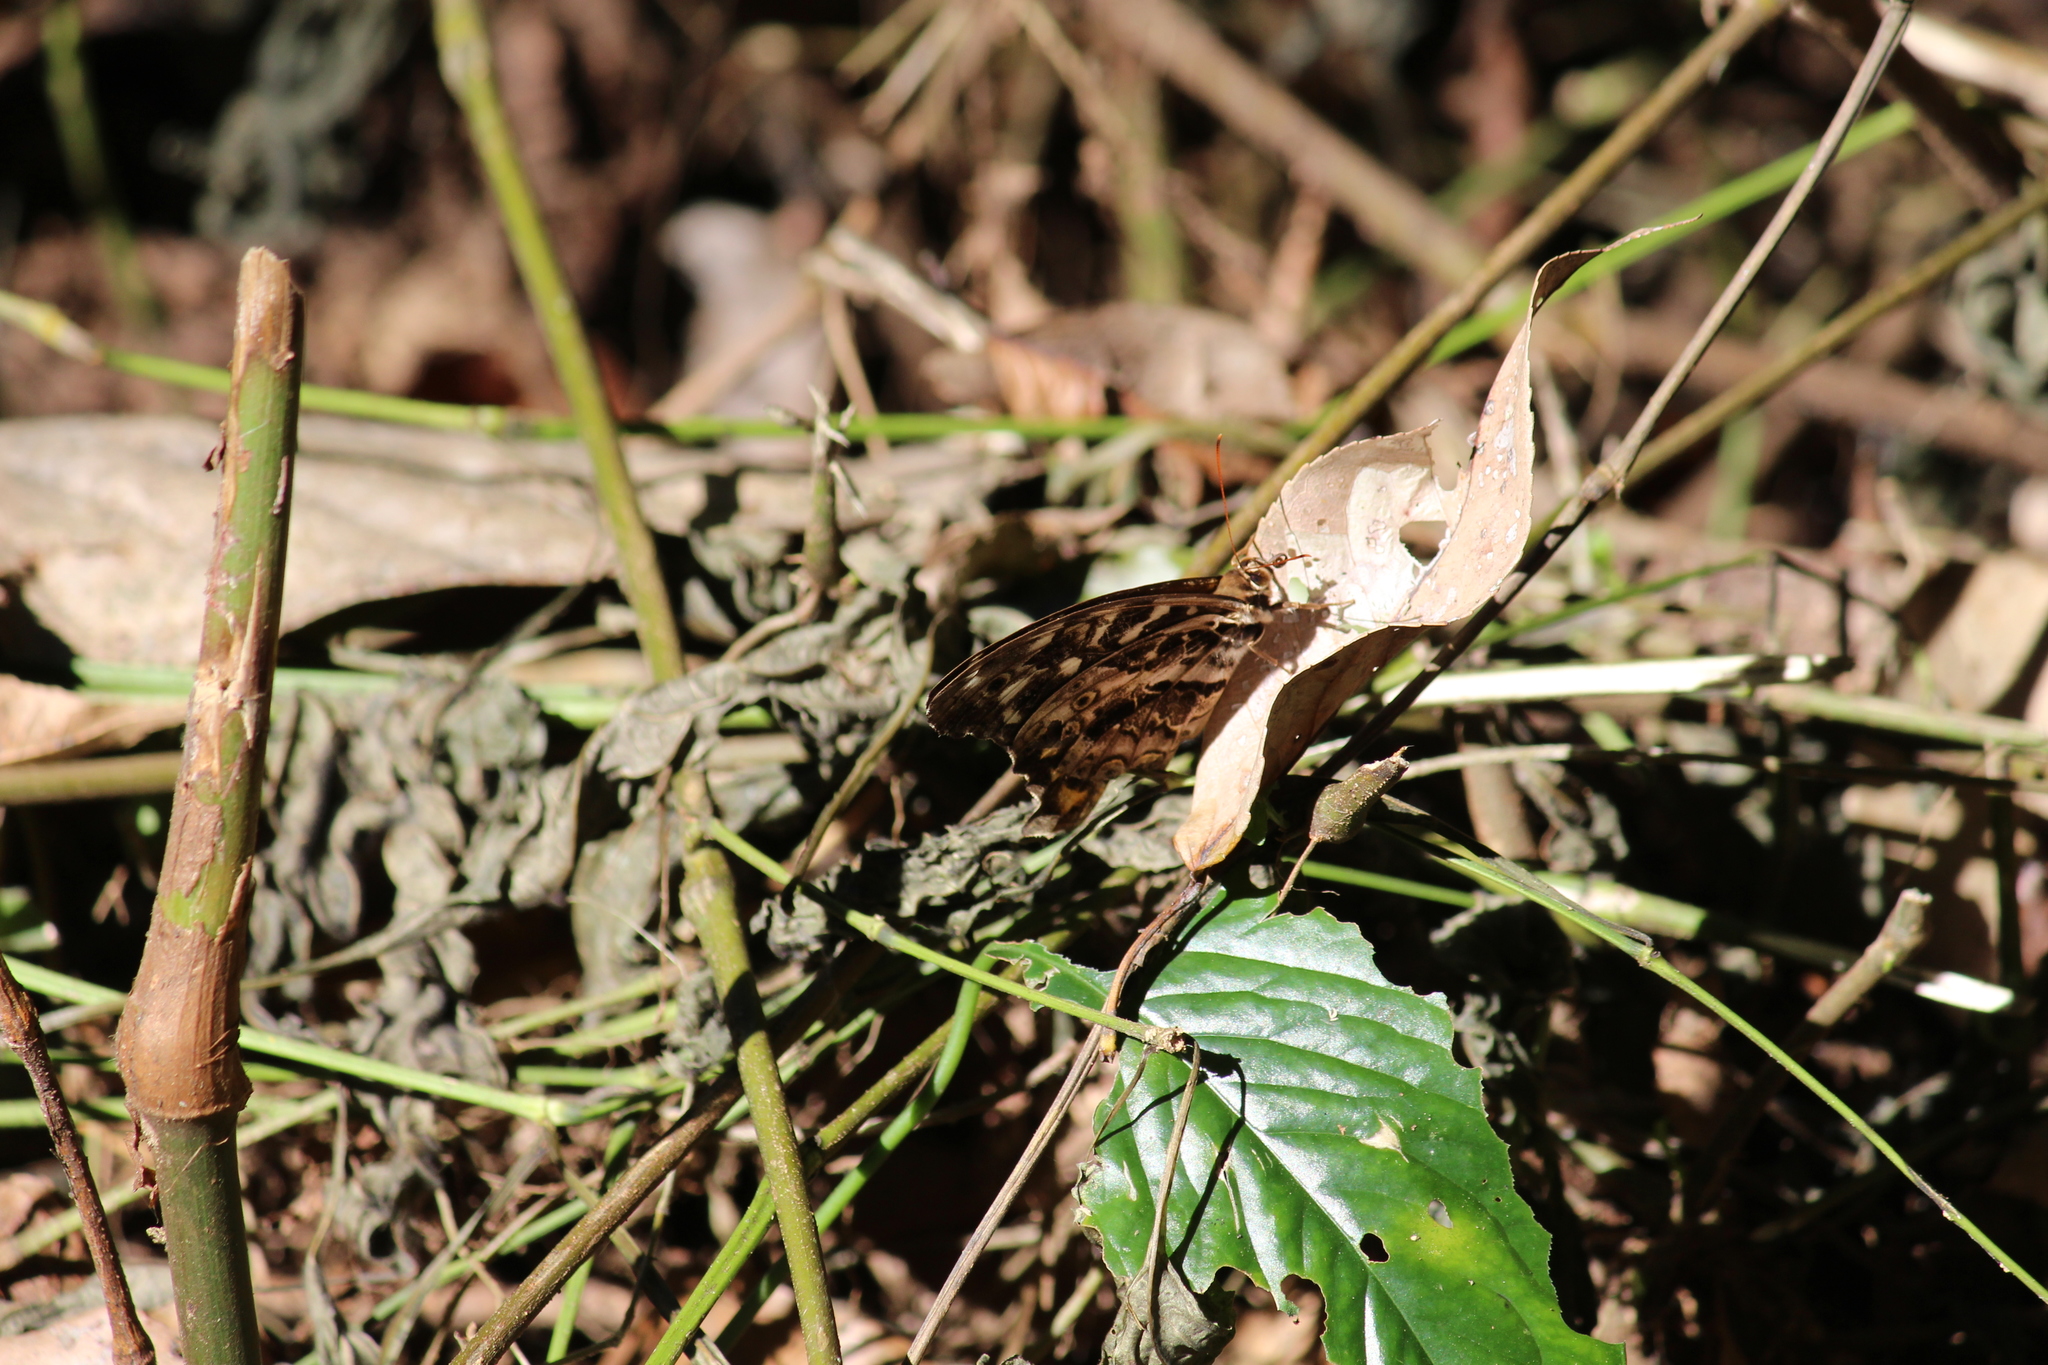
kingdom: Animalia
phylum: Arthropoda
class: Insecta
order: Lepidoptera
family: Nymphalidae
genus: Neope
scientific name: Neope bhadra
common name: Tailed labyrinth
